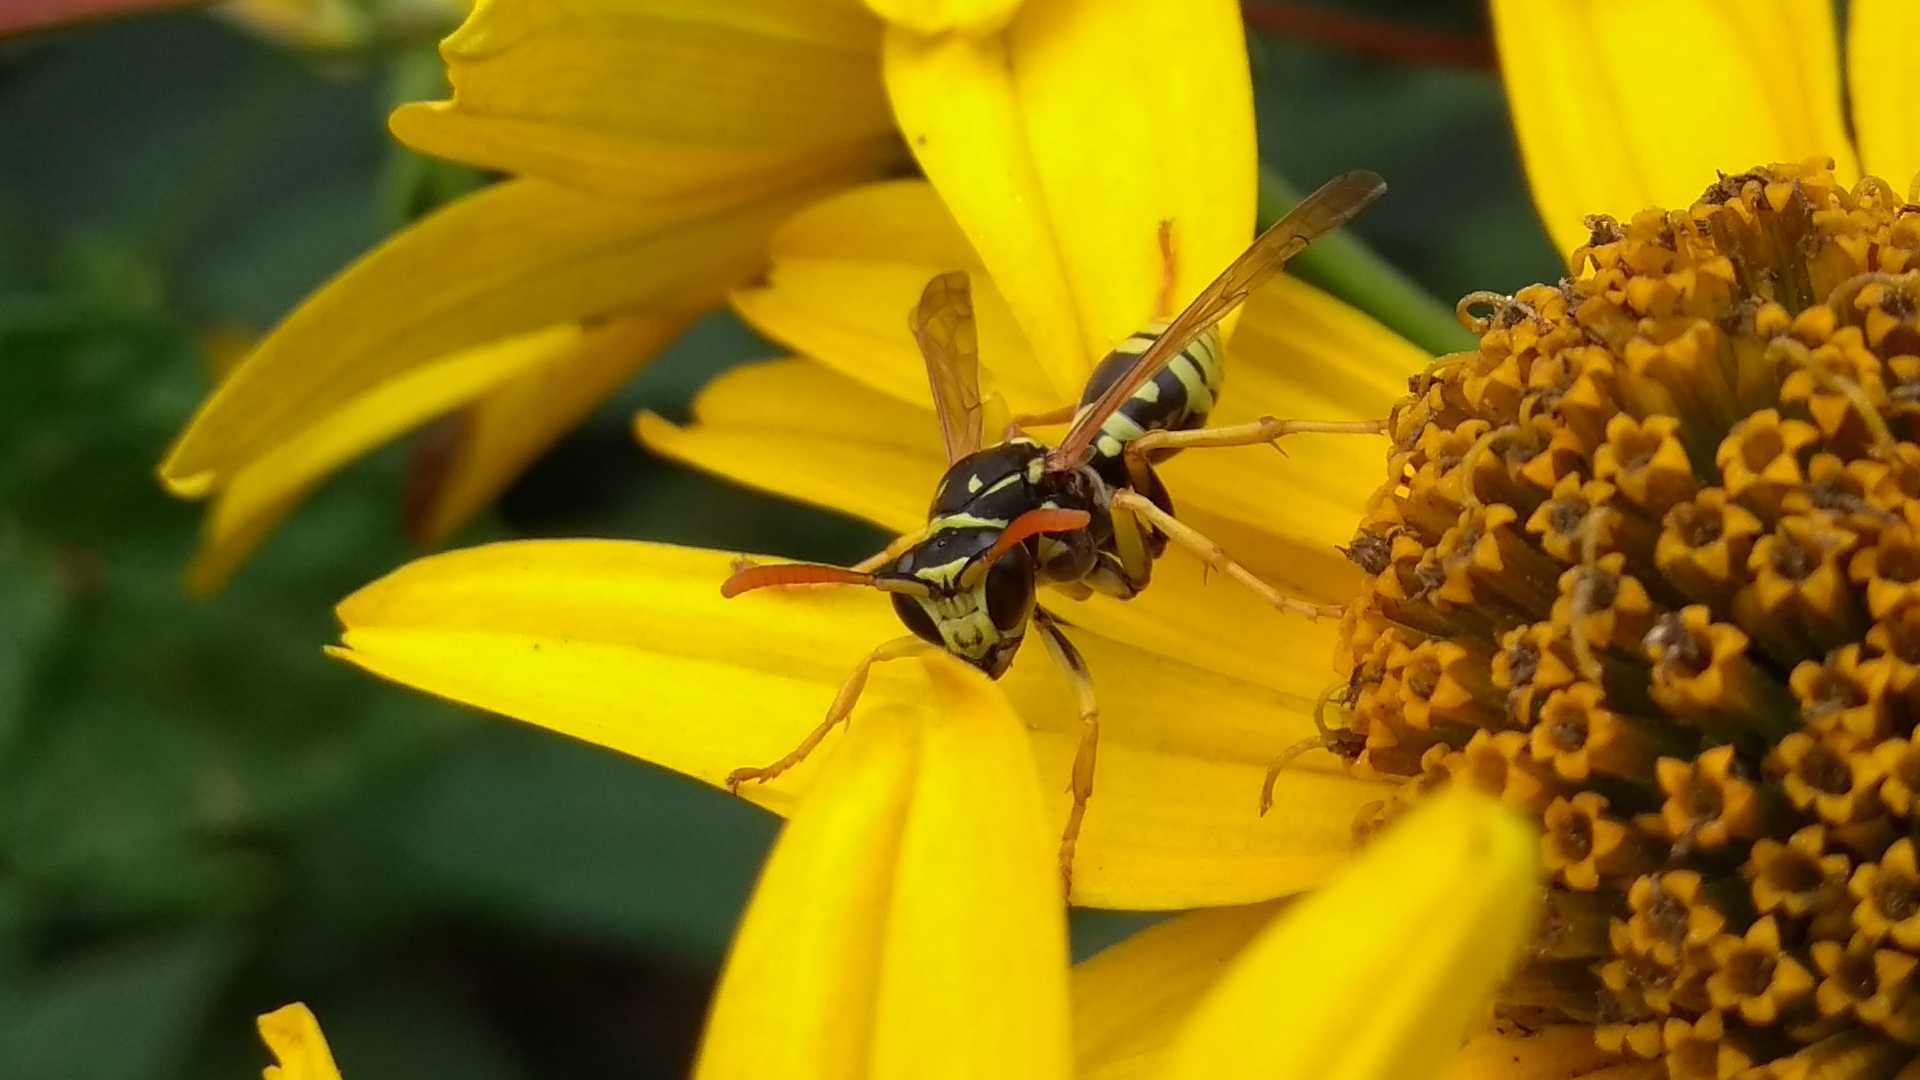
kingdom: Animalia
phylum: Arthropoda
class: Insecta
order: Hymenoptera
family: Eumenidae
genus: Polistes
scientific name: Polistes dominula
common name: Paper wasp
